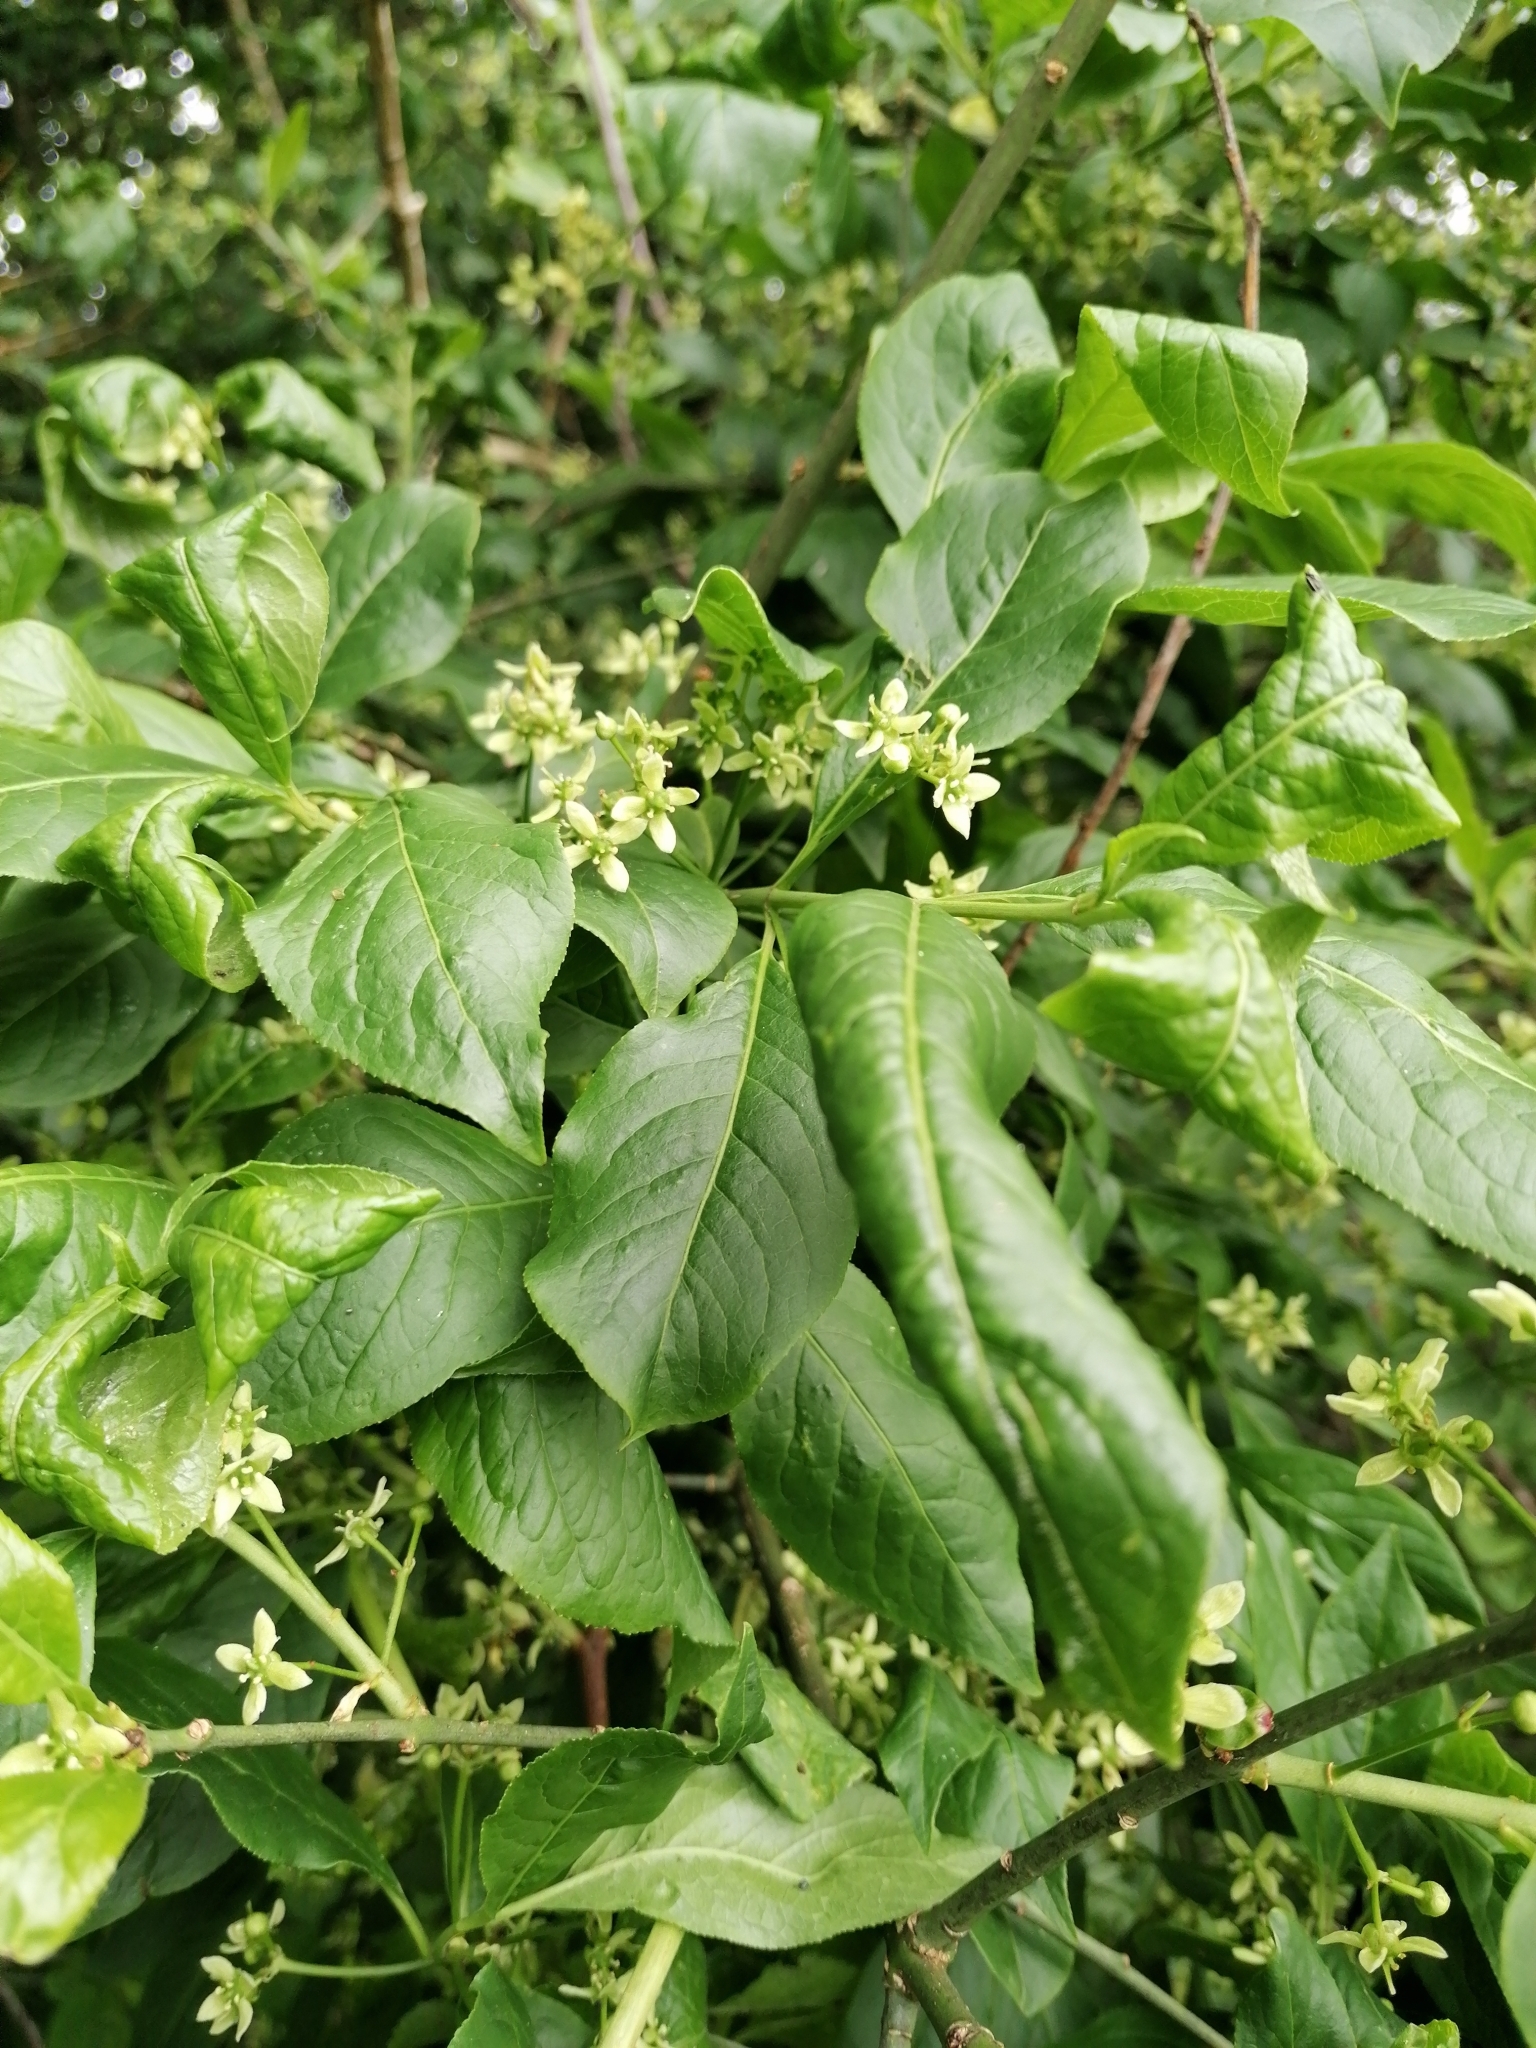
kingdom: Plantae
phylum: Tracheophyta
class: Magnoliopsida
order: Celastrales
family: Celastraceae
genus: Euonymus
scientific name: Euonymus europaeus
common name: Spindle
